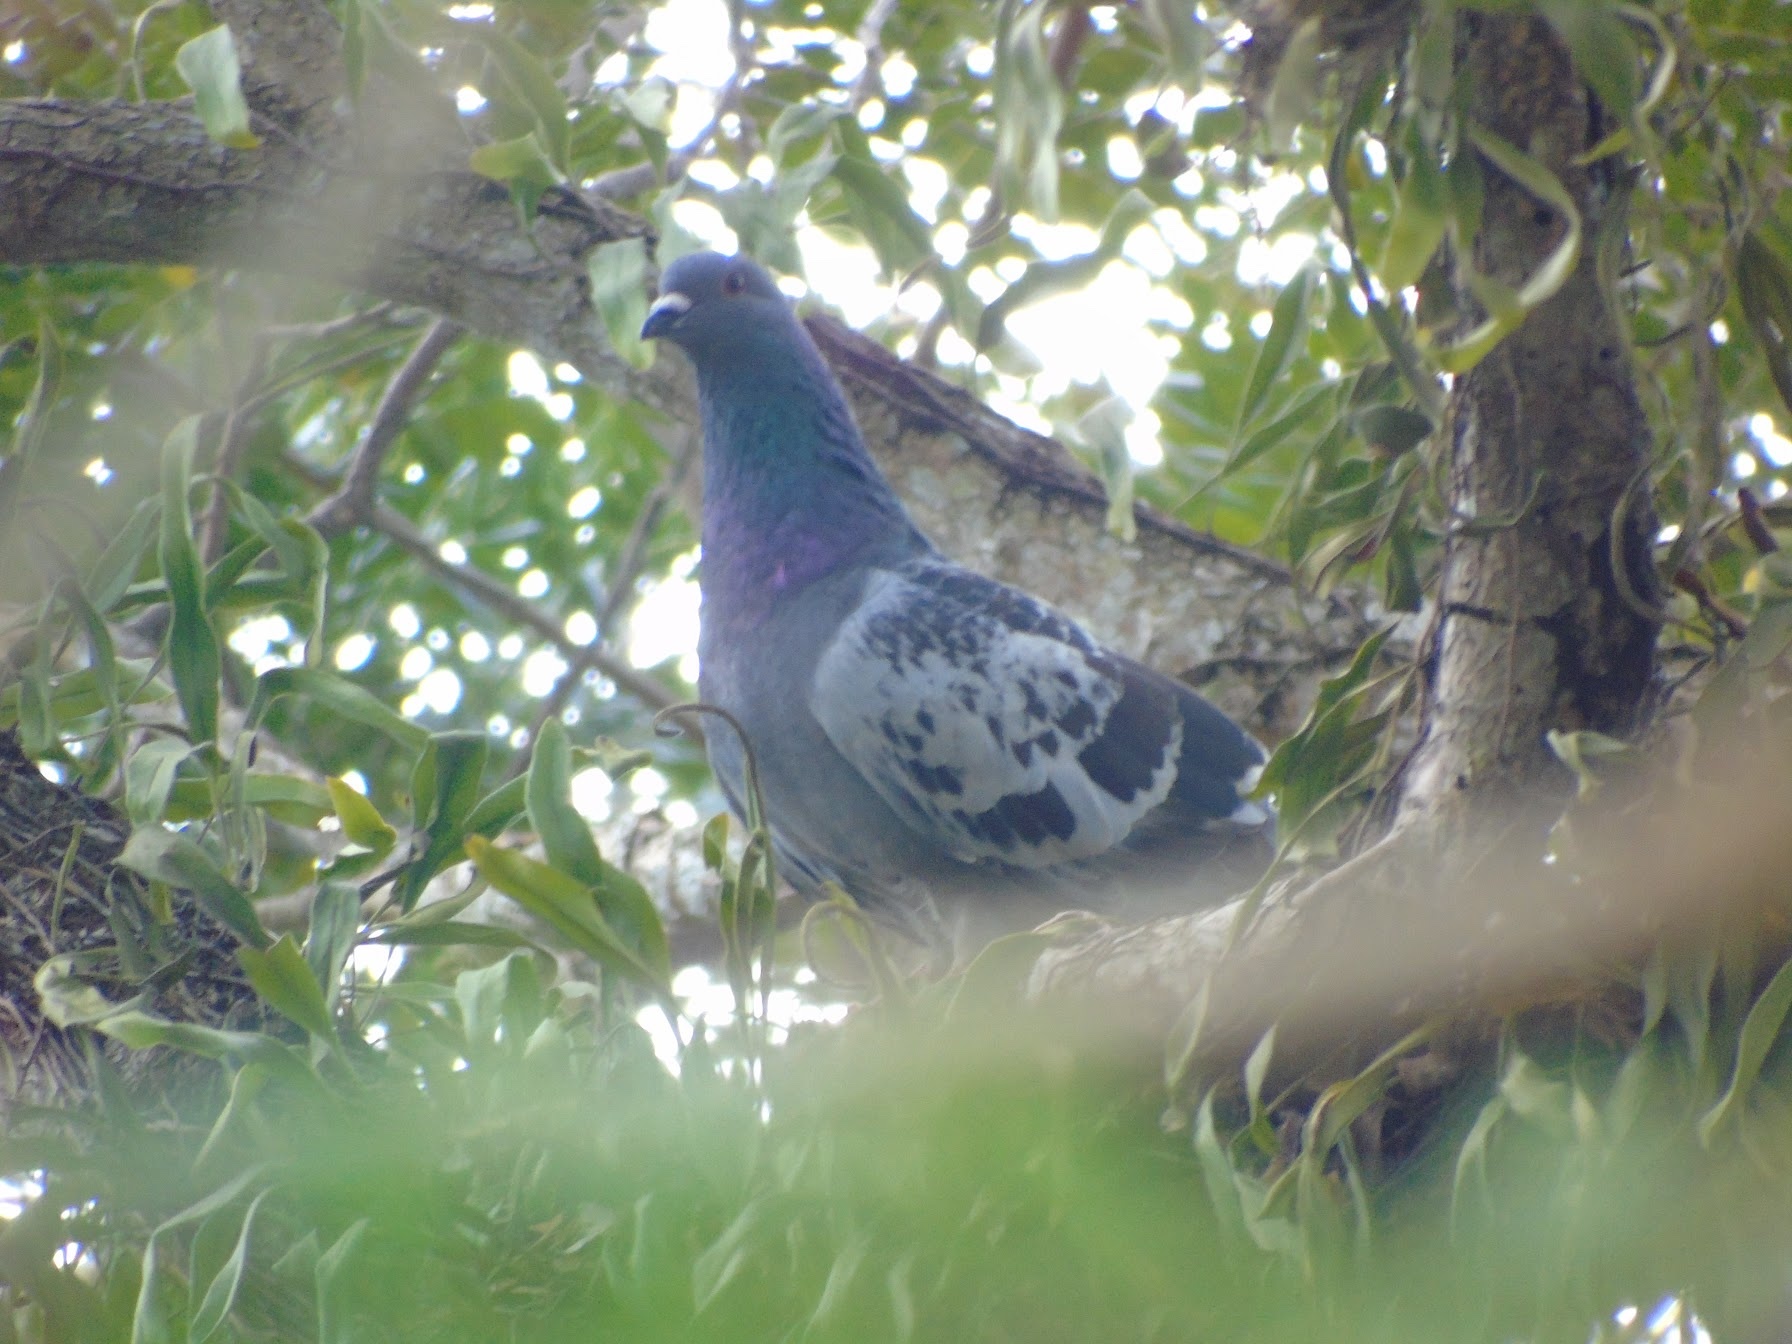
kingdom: Animalia
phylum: Chordata
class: Aves
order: Columbiformes
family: Columbidae
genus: Columba
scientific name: Columba livia
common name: Rock pigeon
